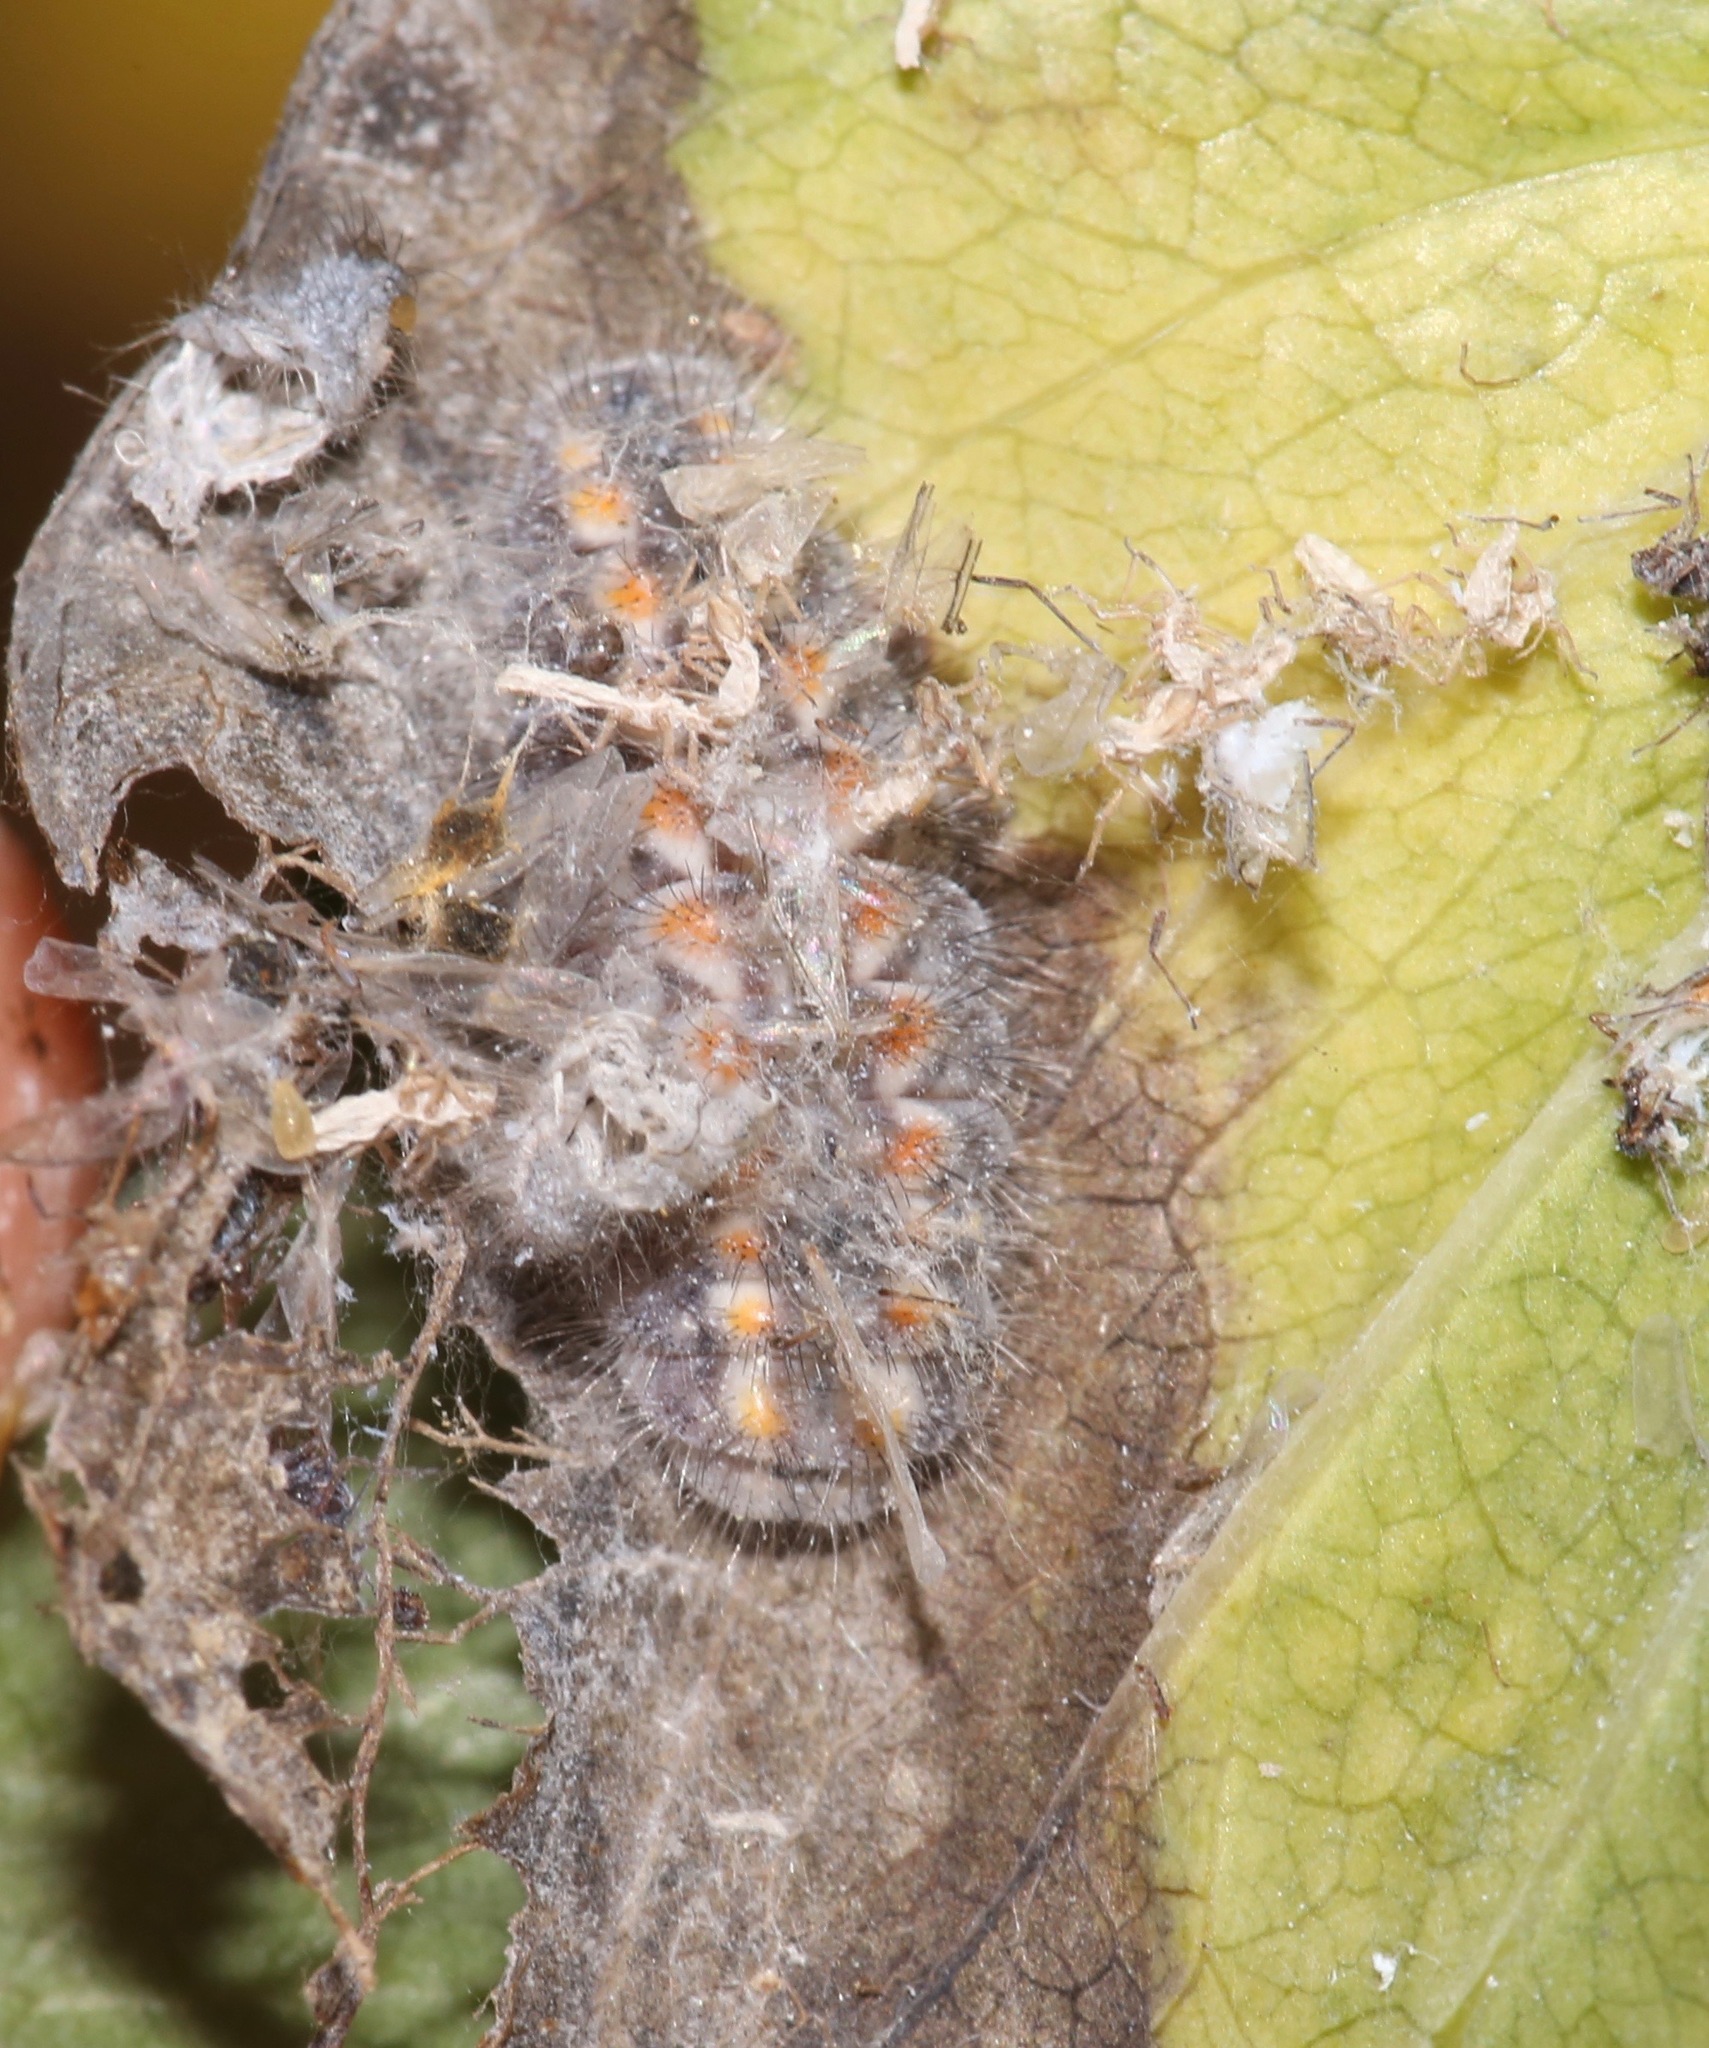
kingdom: Animalia
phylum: Arthropoda
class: Insecta
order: Lepidoptera
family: Lycaenidae
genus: Feniseca
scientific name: Feniseca tarquinius
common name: Harvester
